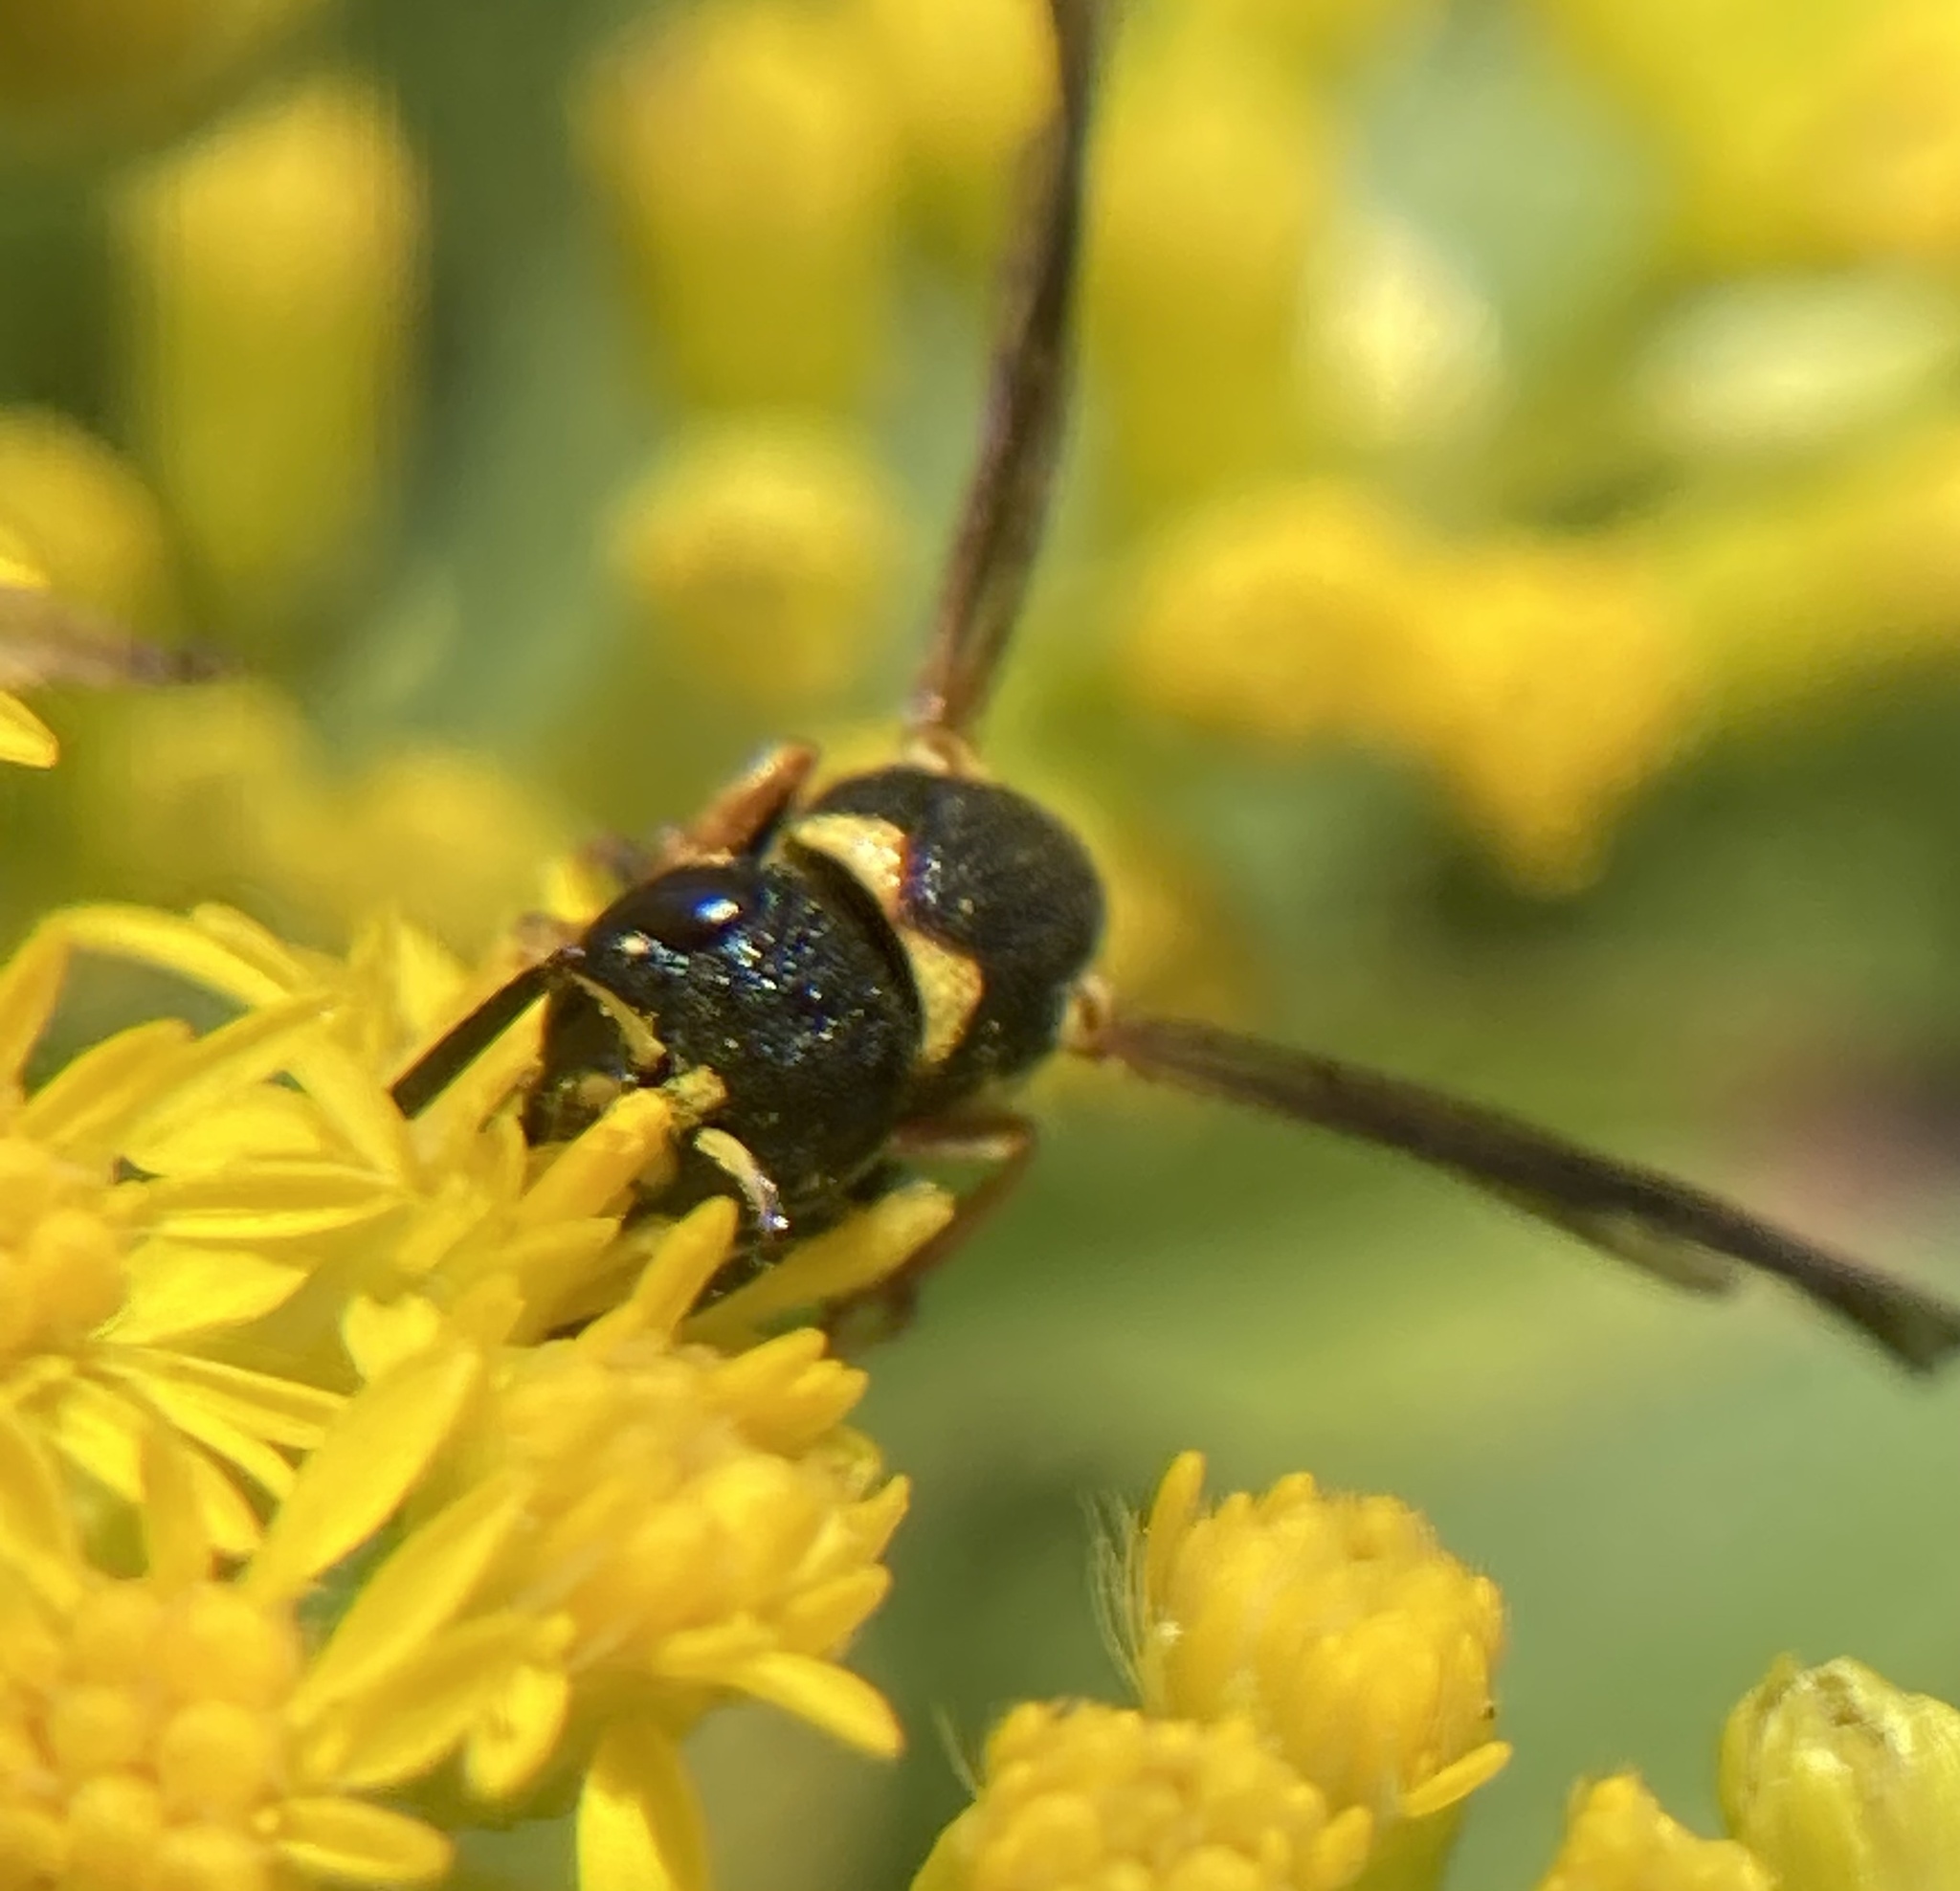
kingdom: Animalia
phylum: Arthropoda
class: Insecta
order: Hymenoptera
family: Eumenidae
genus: Parancistrocerus
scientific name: Parancistrocerus perennis
